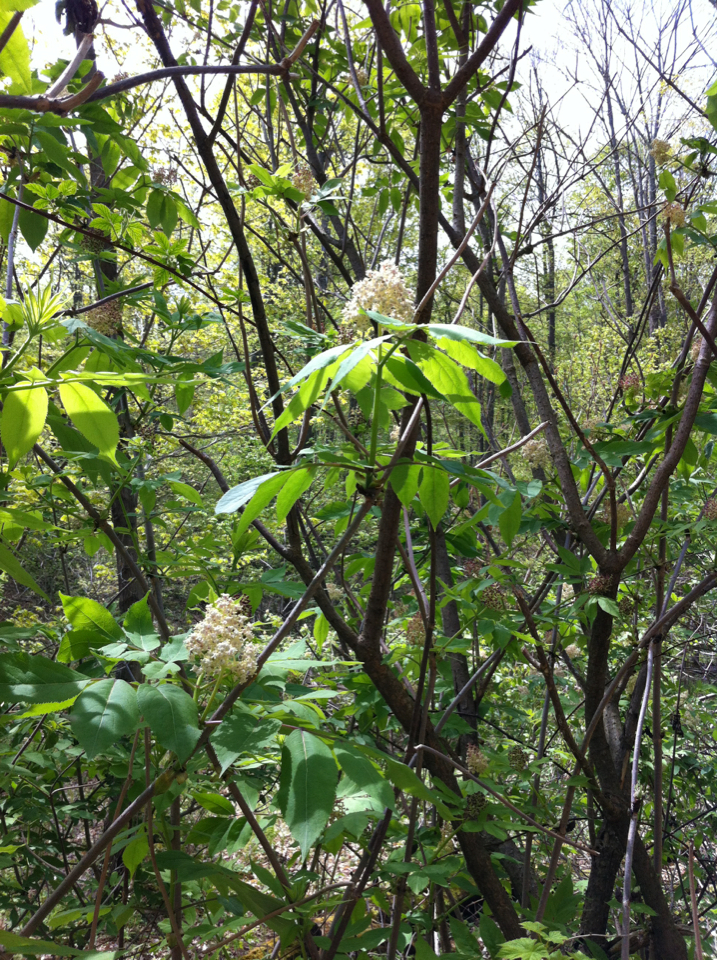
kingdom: Plantae
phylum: Tracheophyta
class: Magnoliopsida
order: Dipsacales
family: Viburnaceae
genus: Sambucus
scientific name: Sambucus racemosa
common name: Red-berried elder
